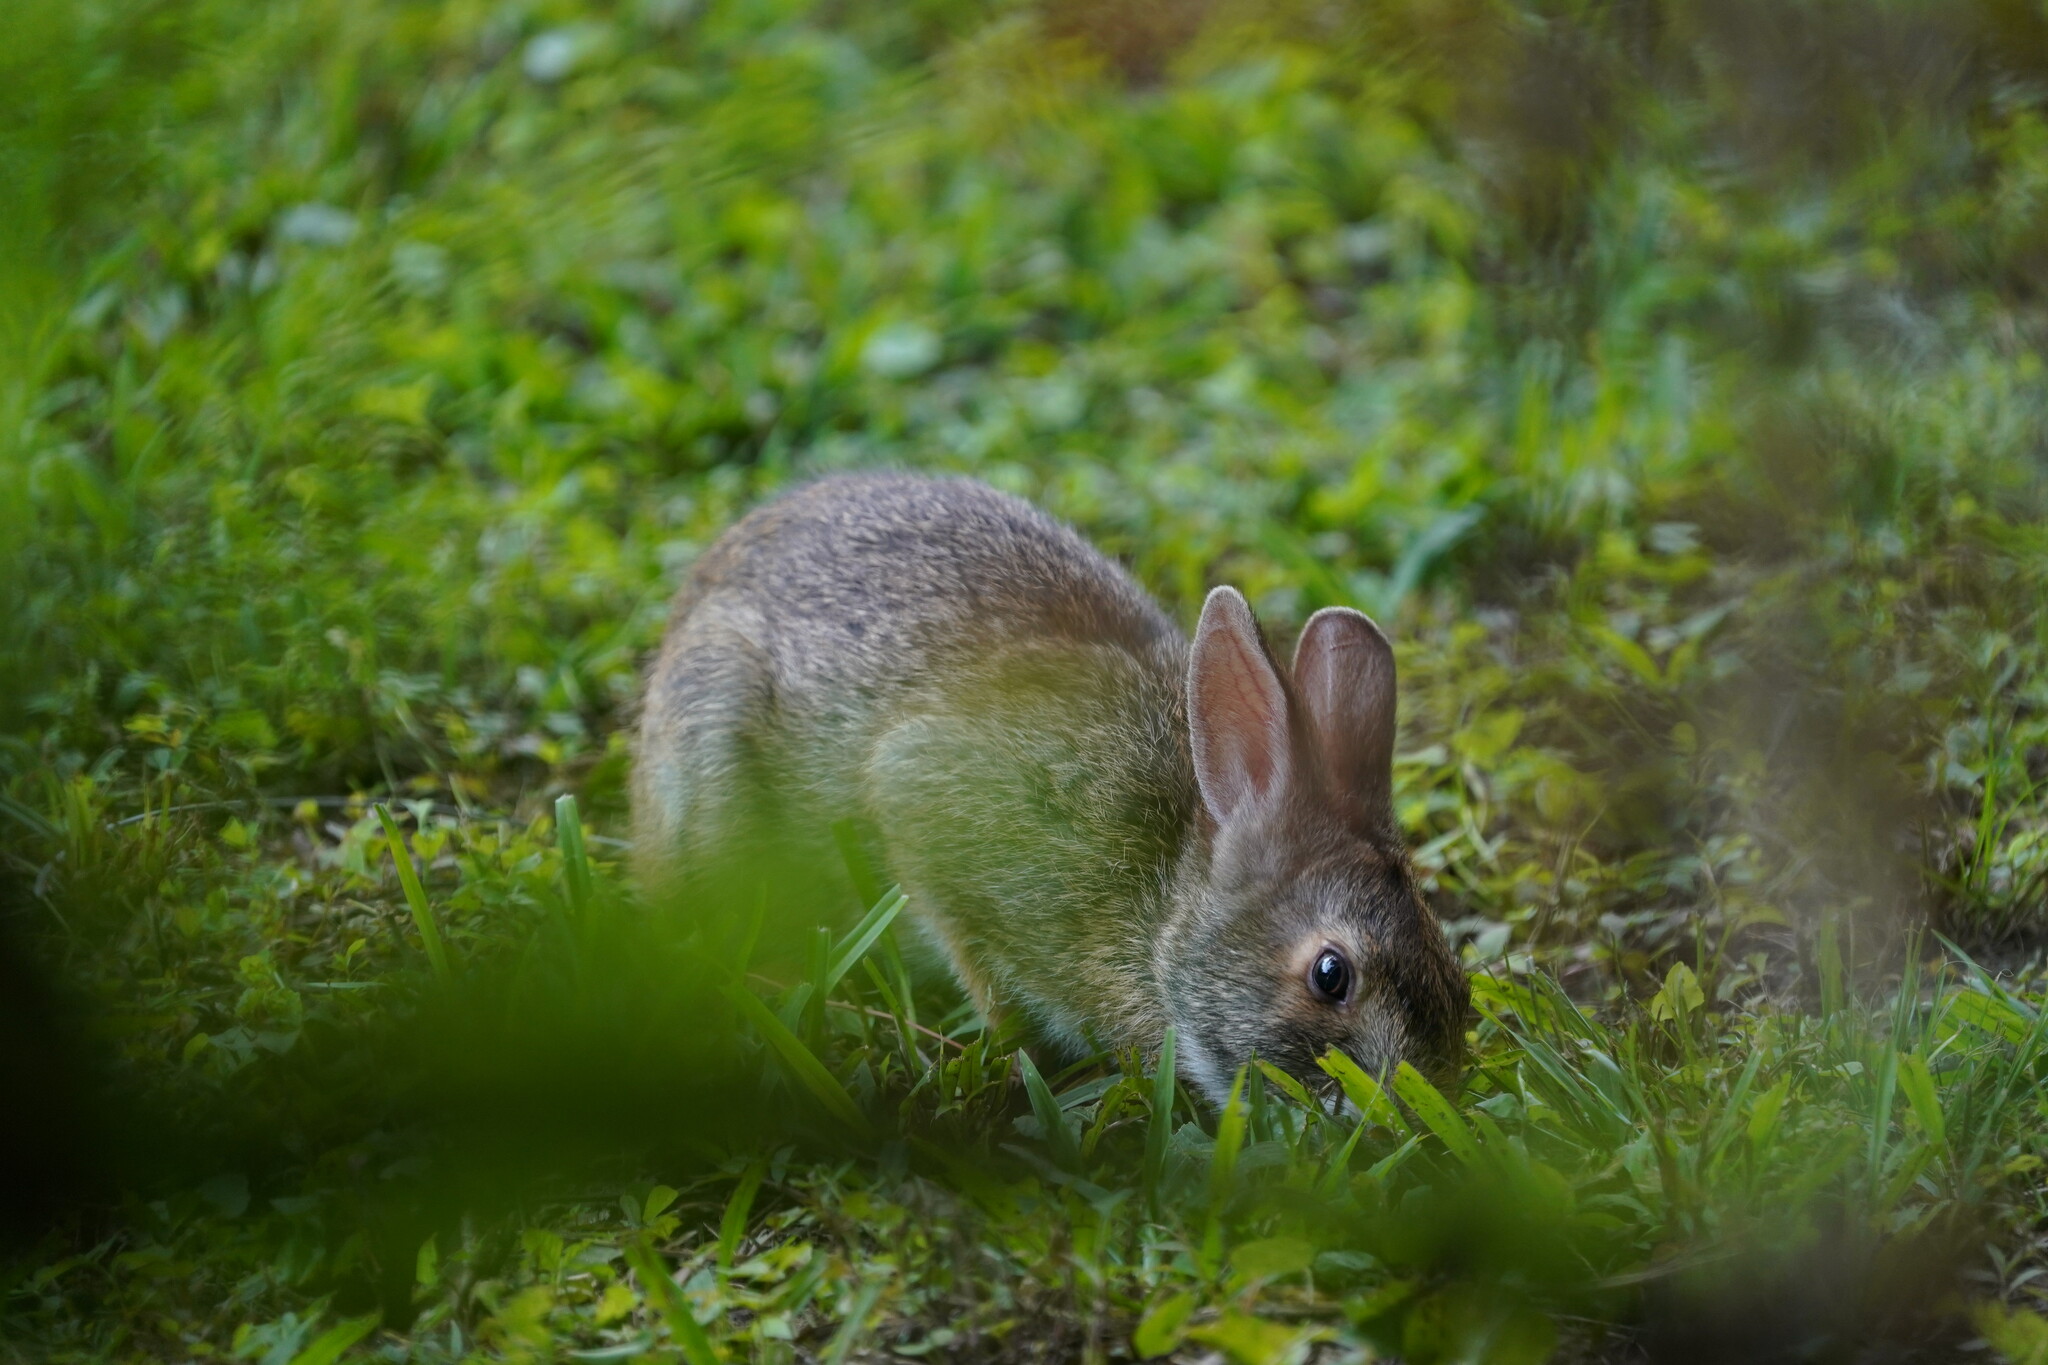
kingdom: Animalia
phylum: Chordata
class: Mammalia
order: Lagomorpha
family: Leporidae
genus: Sylvilagus
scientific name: Sylvilagus aquaticus
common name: Swamp rabbit
